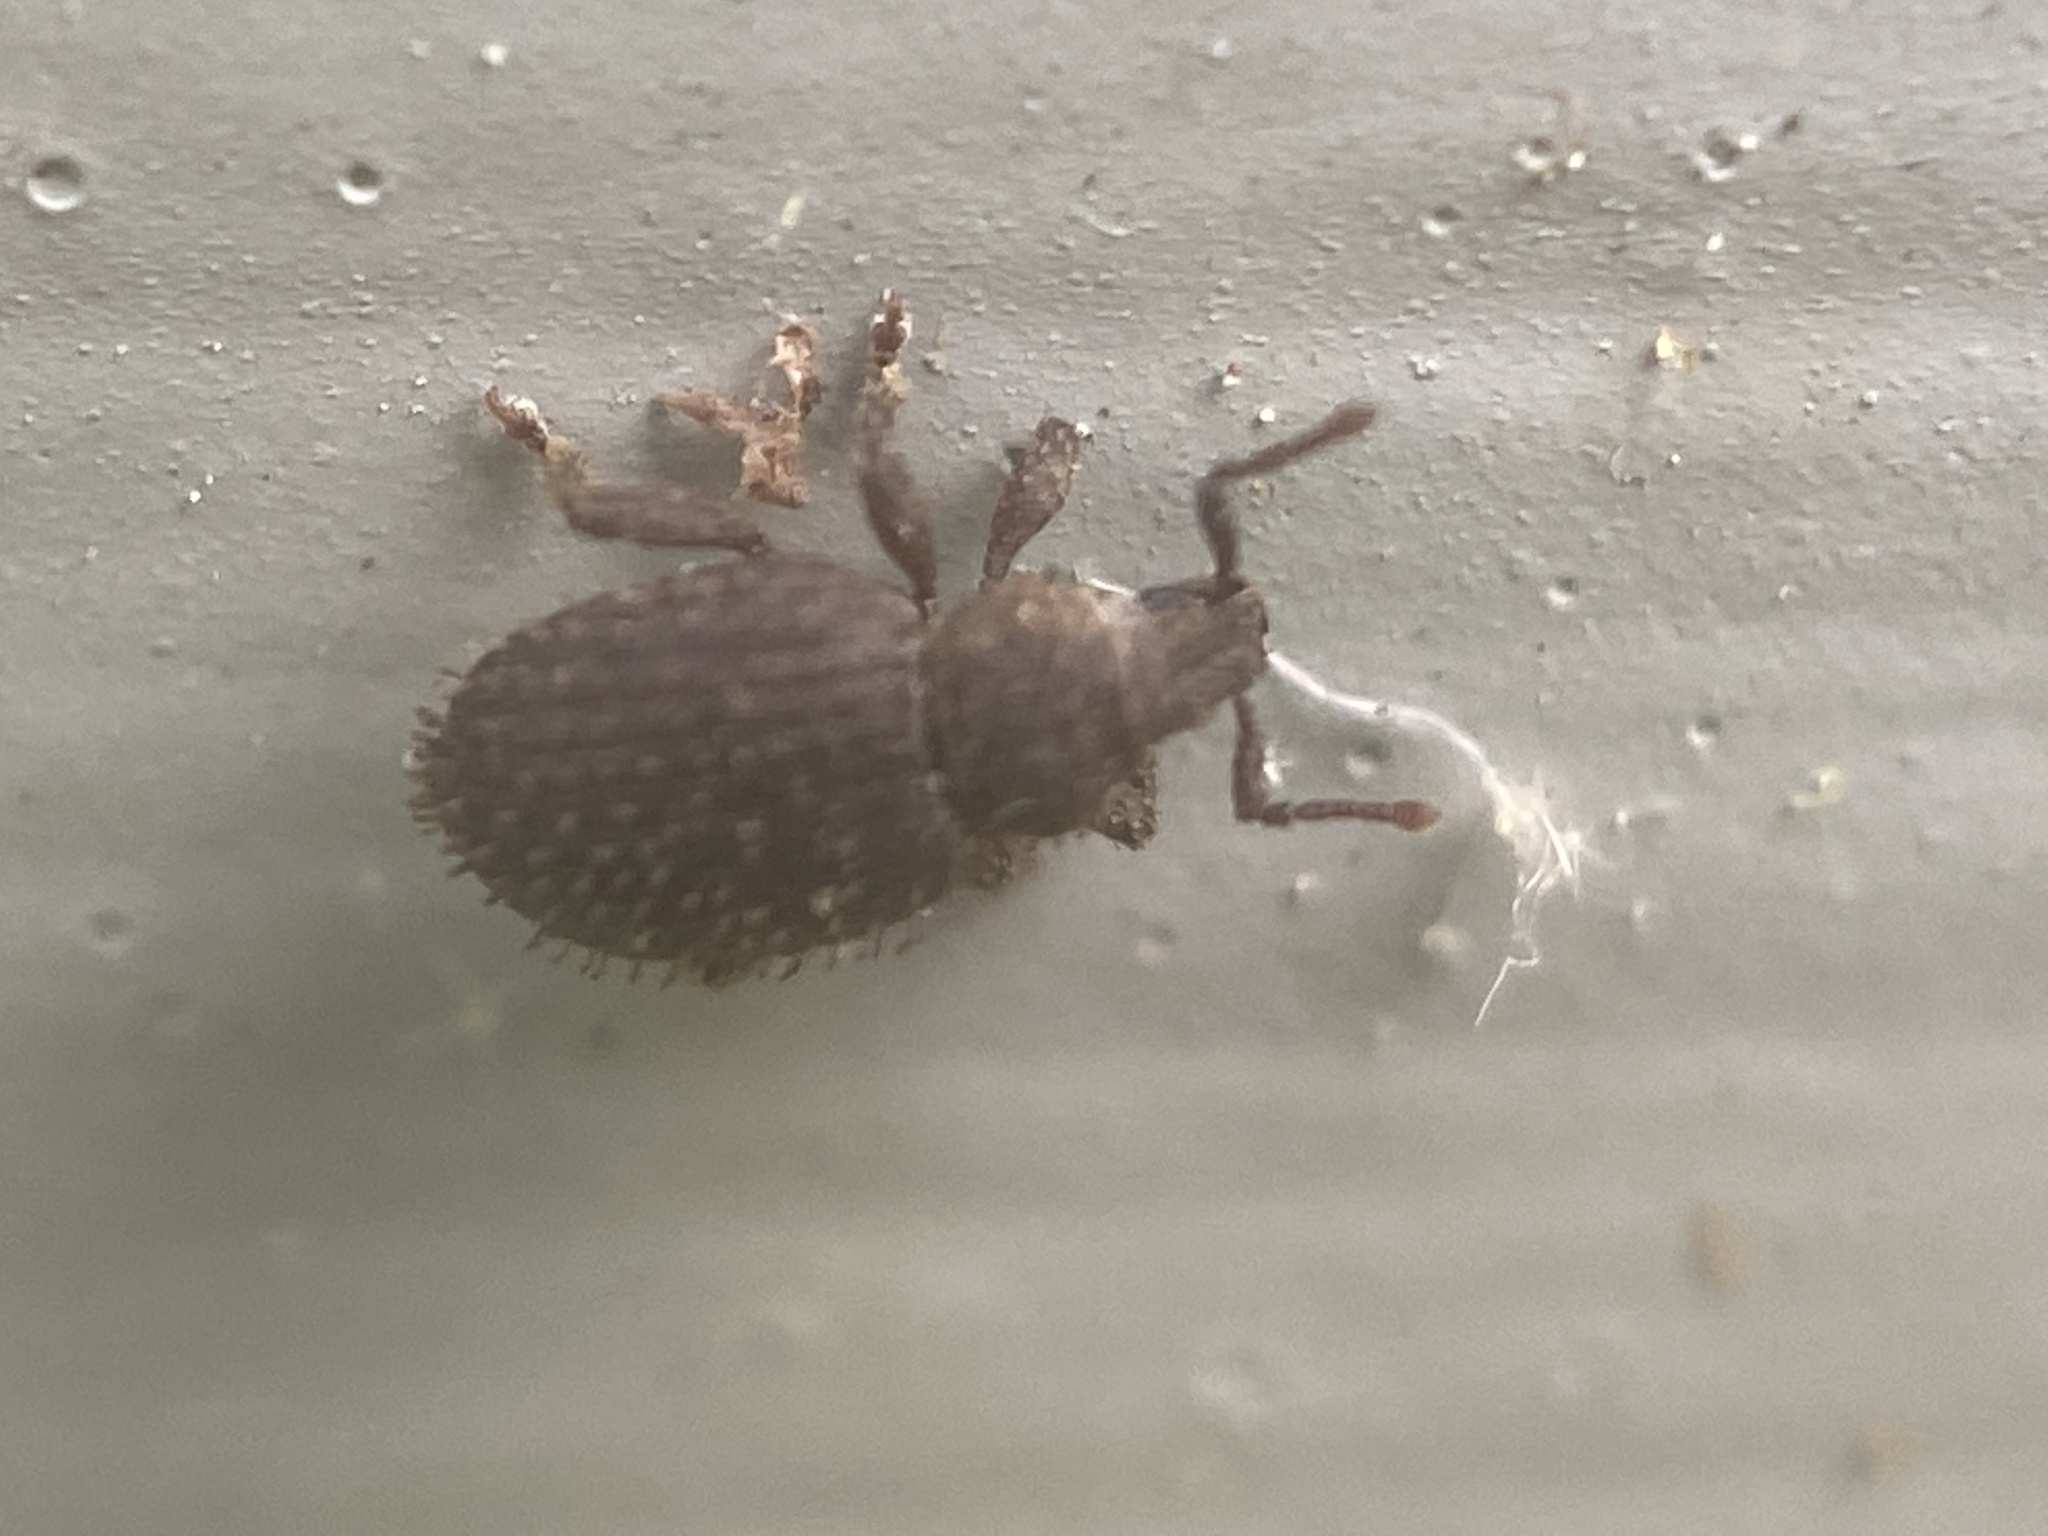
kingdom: Animalia
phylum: Arthropoda
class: Insecta
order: Coleoptera
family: Curculionidae
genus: Cathormiocerus
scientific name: Cathormiocerus aristatus
